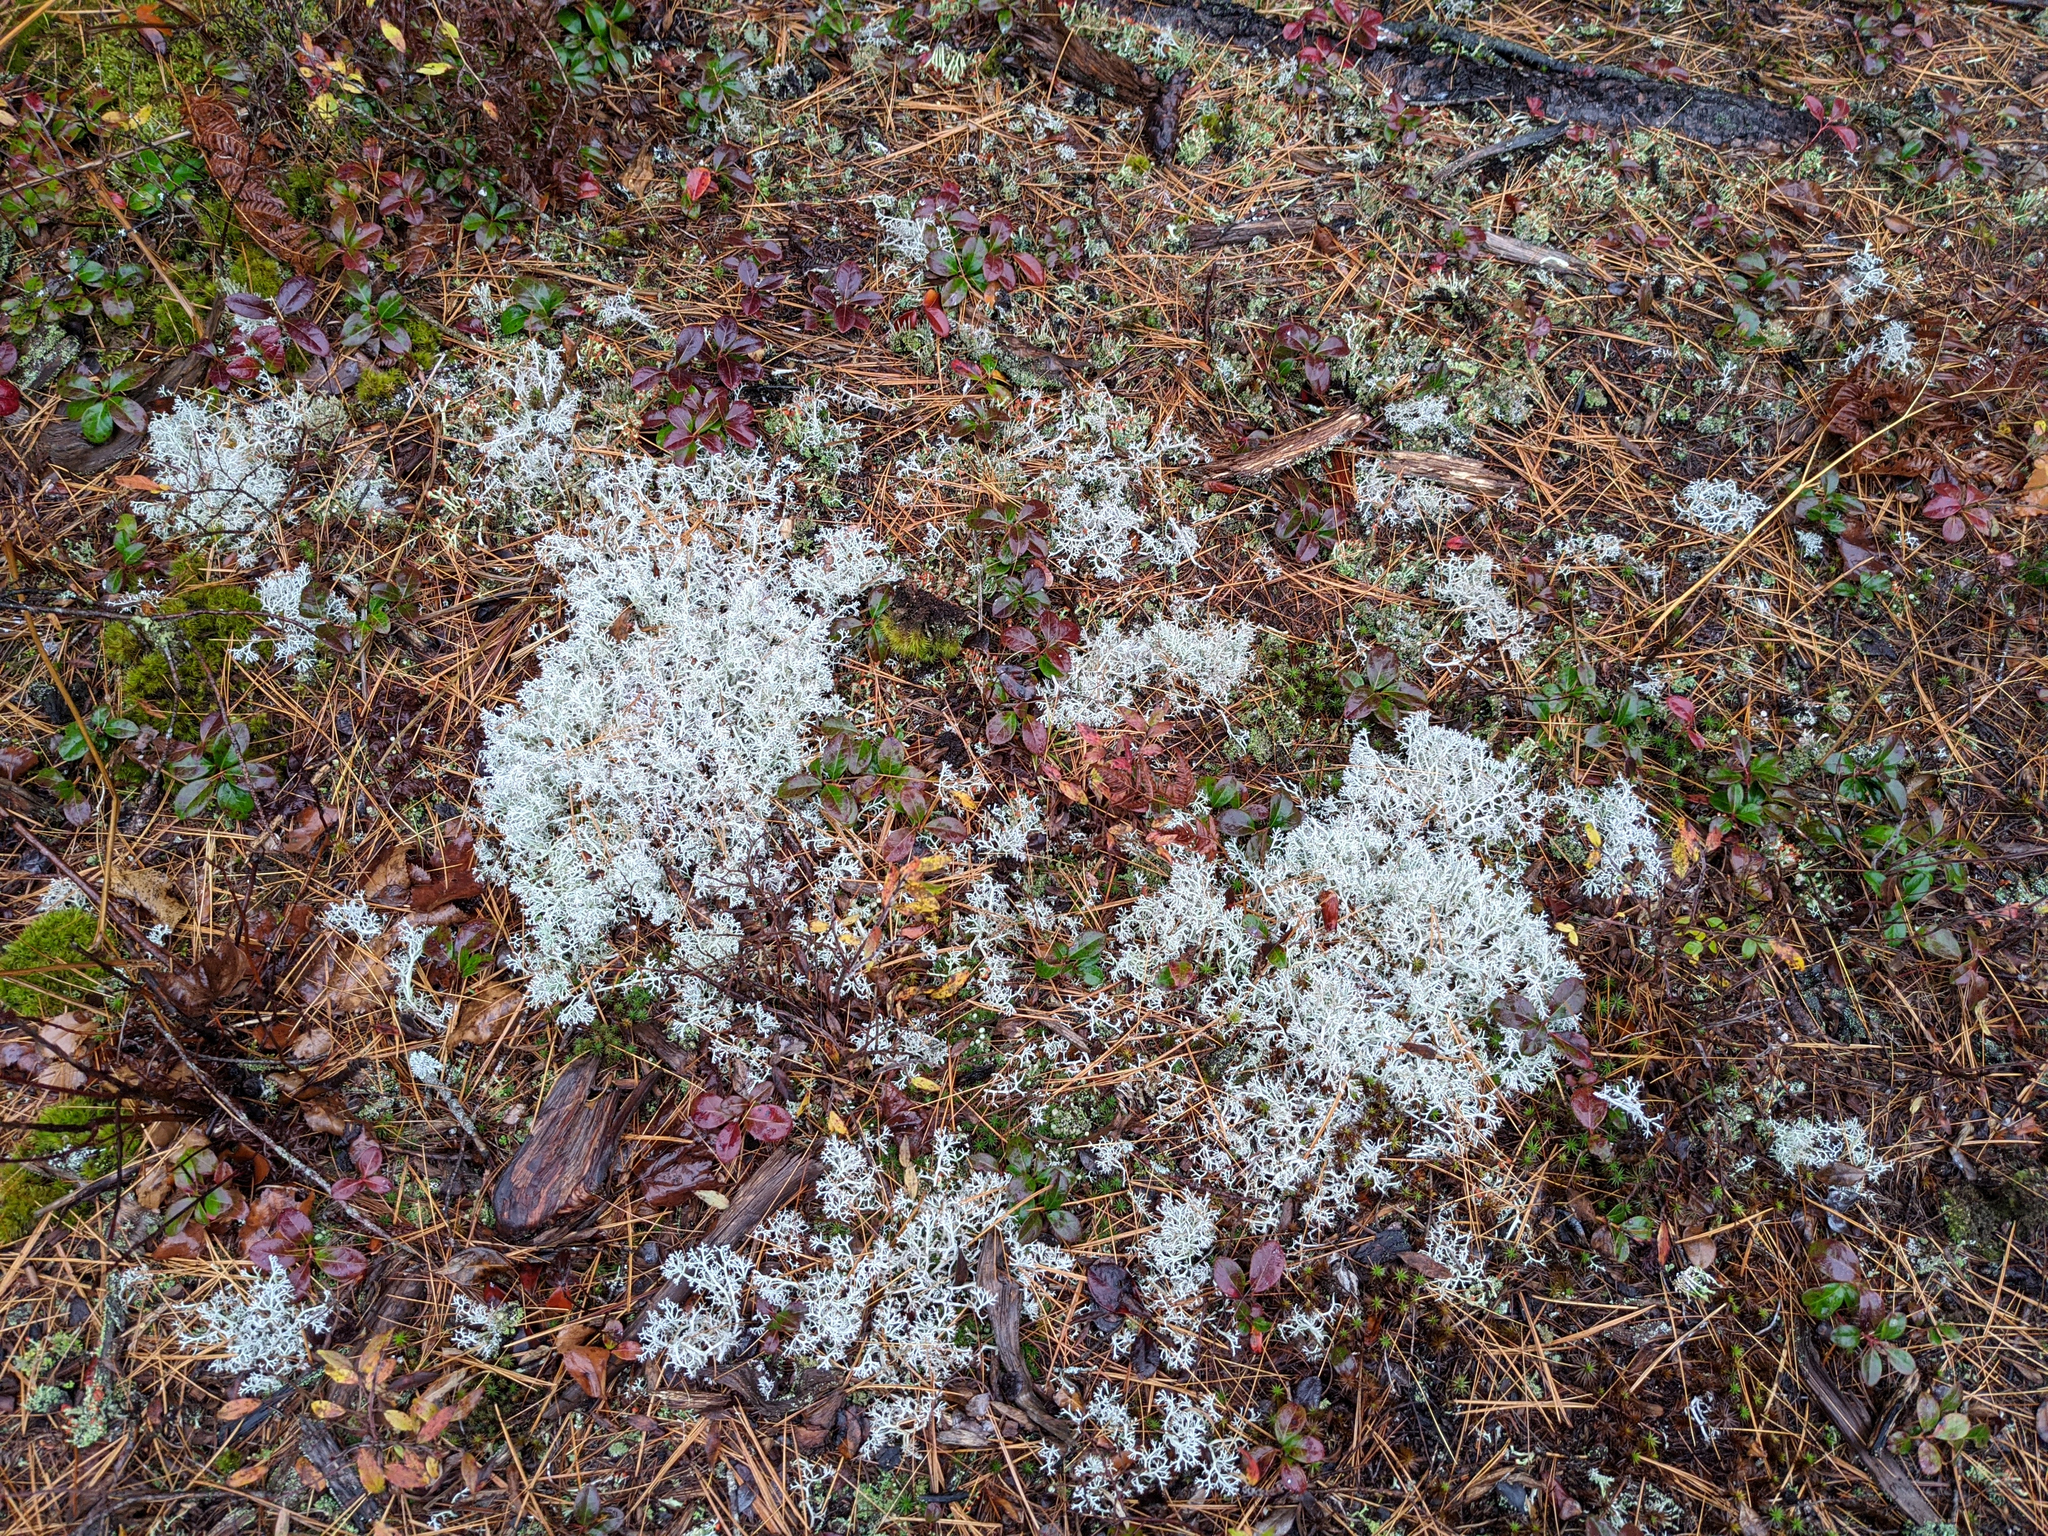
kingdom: Plantae
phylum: Tracheophyta
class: Magnoliopsida
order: Ericales
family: Ericaceae
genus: Gaultheria
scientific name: Gaultheria procumbens
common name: Checkerberry
